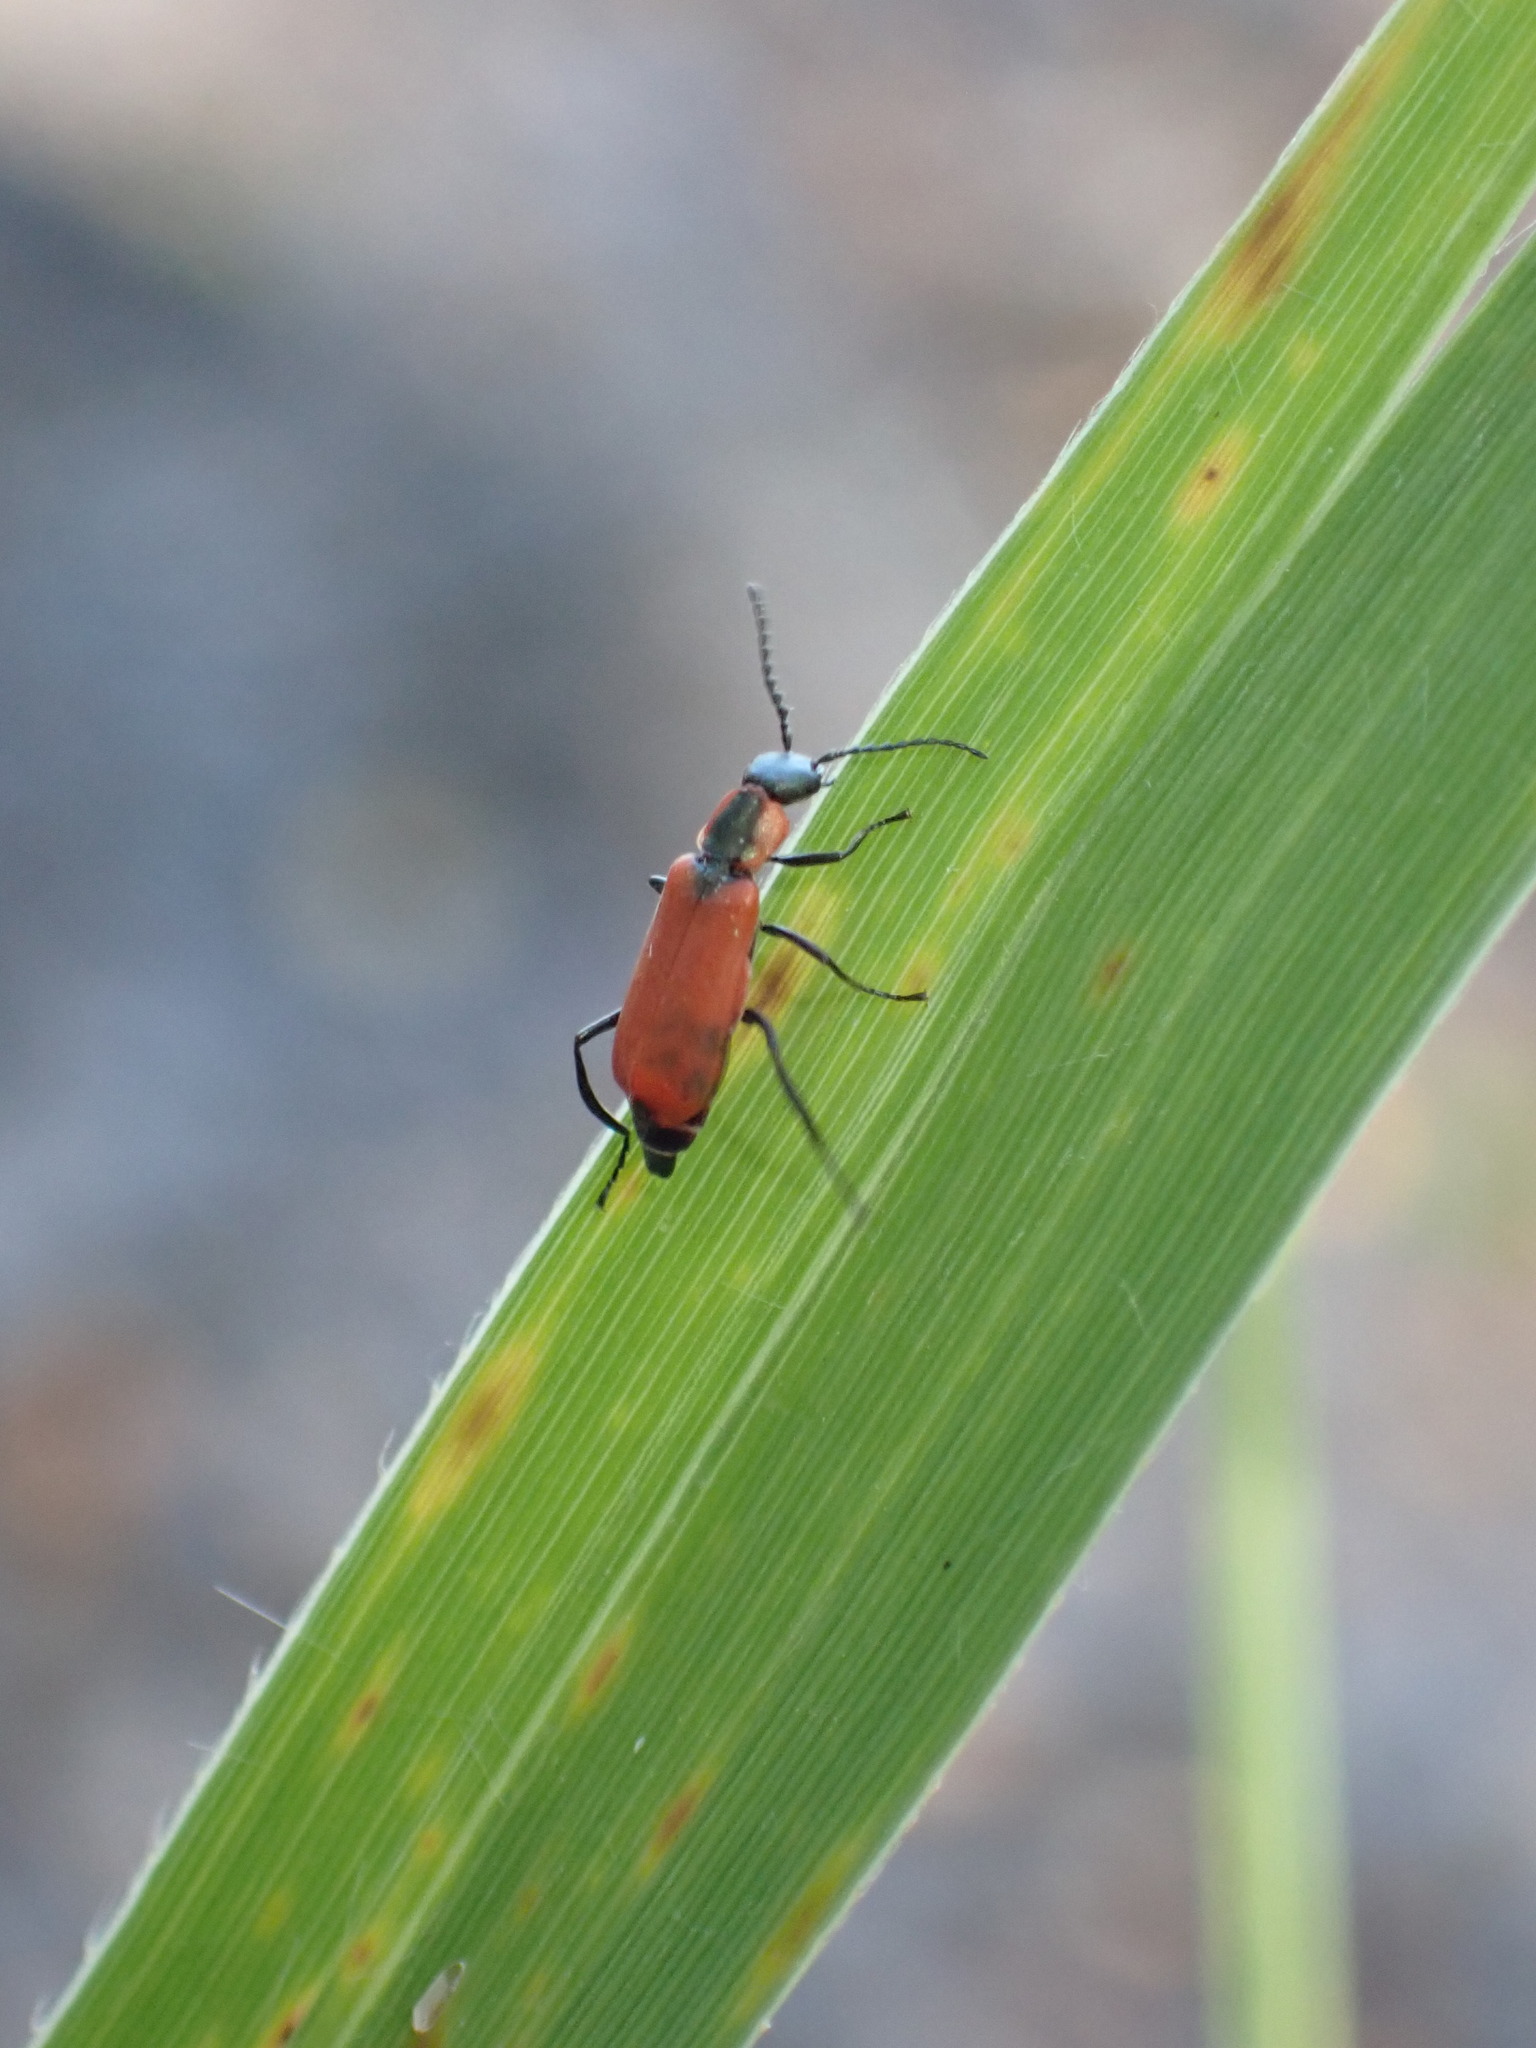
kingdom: Animalia
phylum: Arthropoda
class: Insecta
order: Coleoptera
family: Melyridae
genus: Anthocomus
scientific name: Anthocomus rufus
